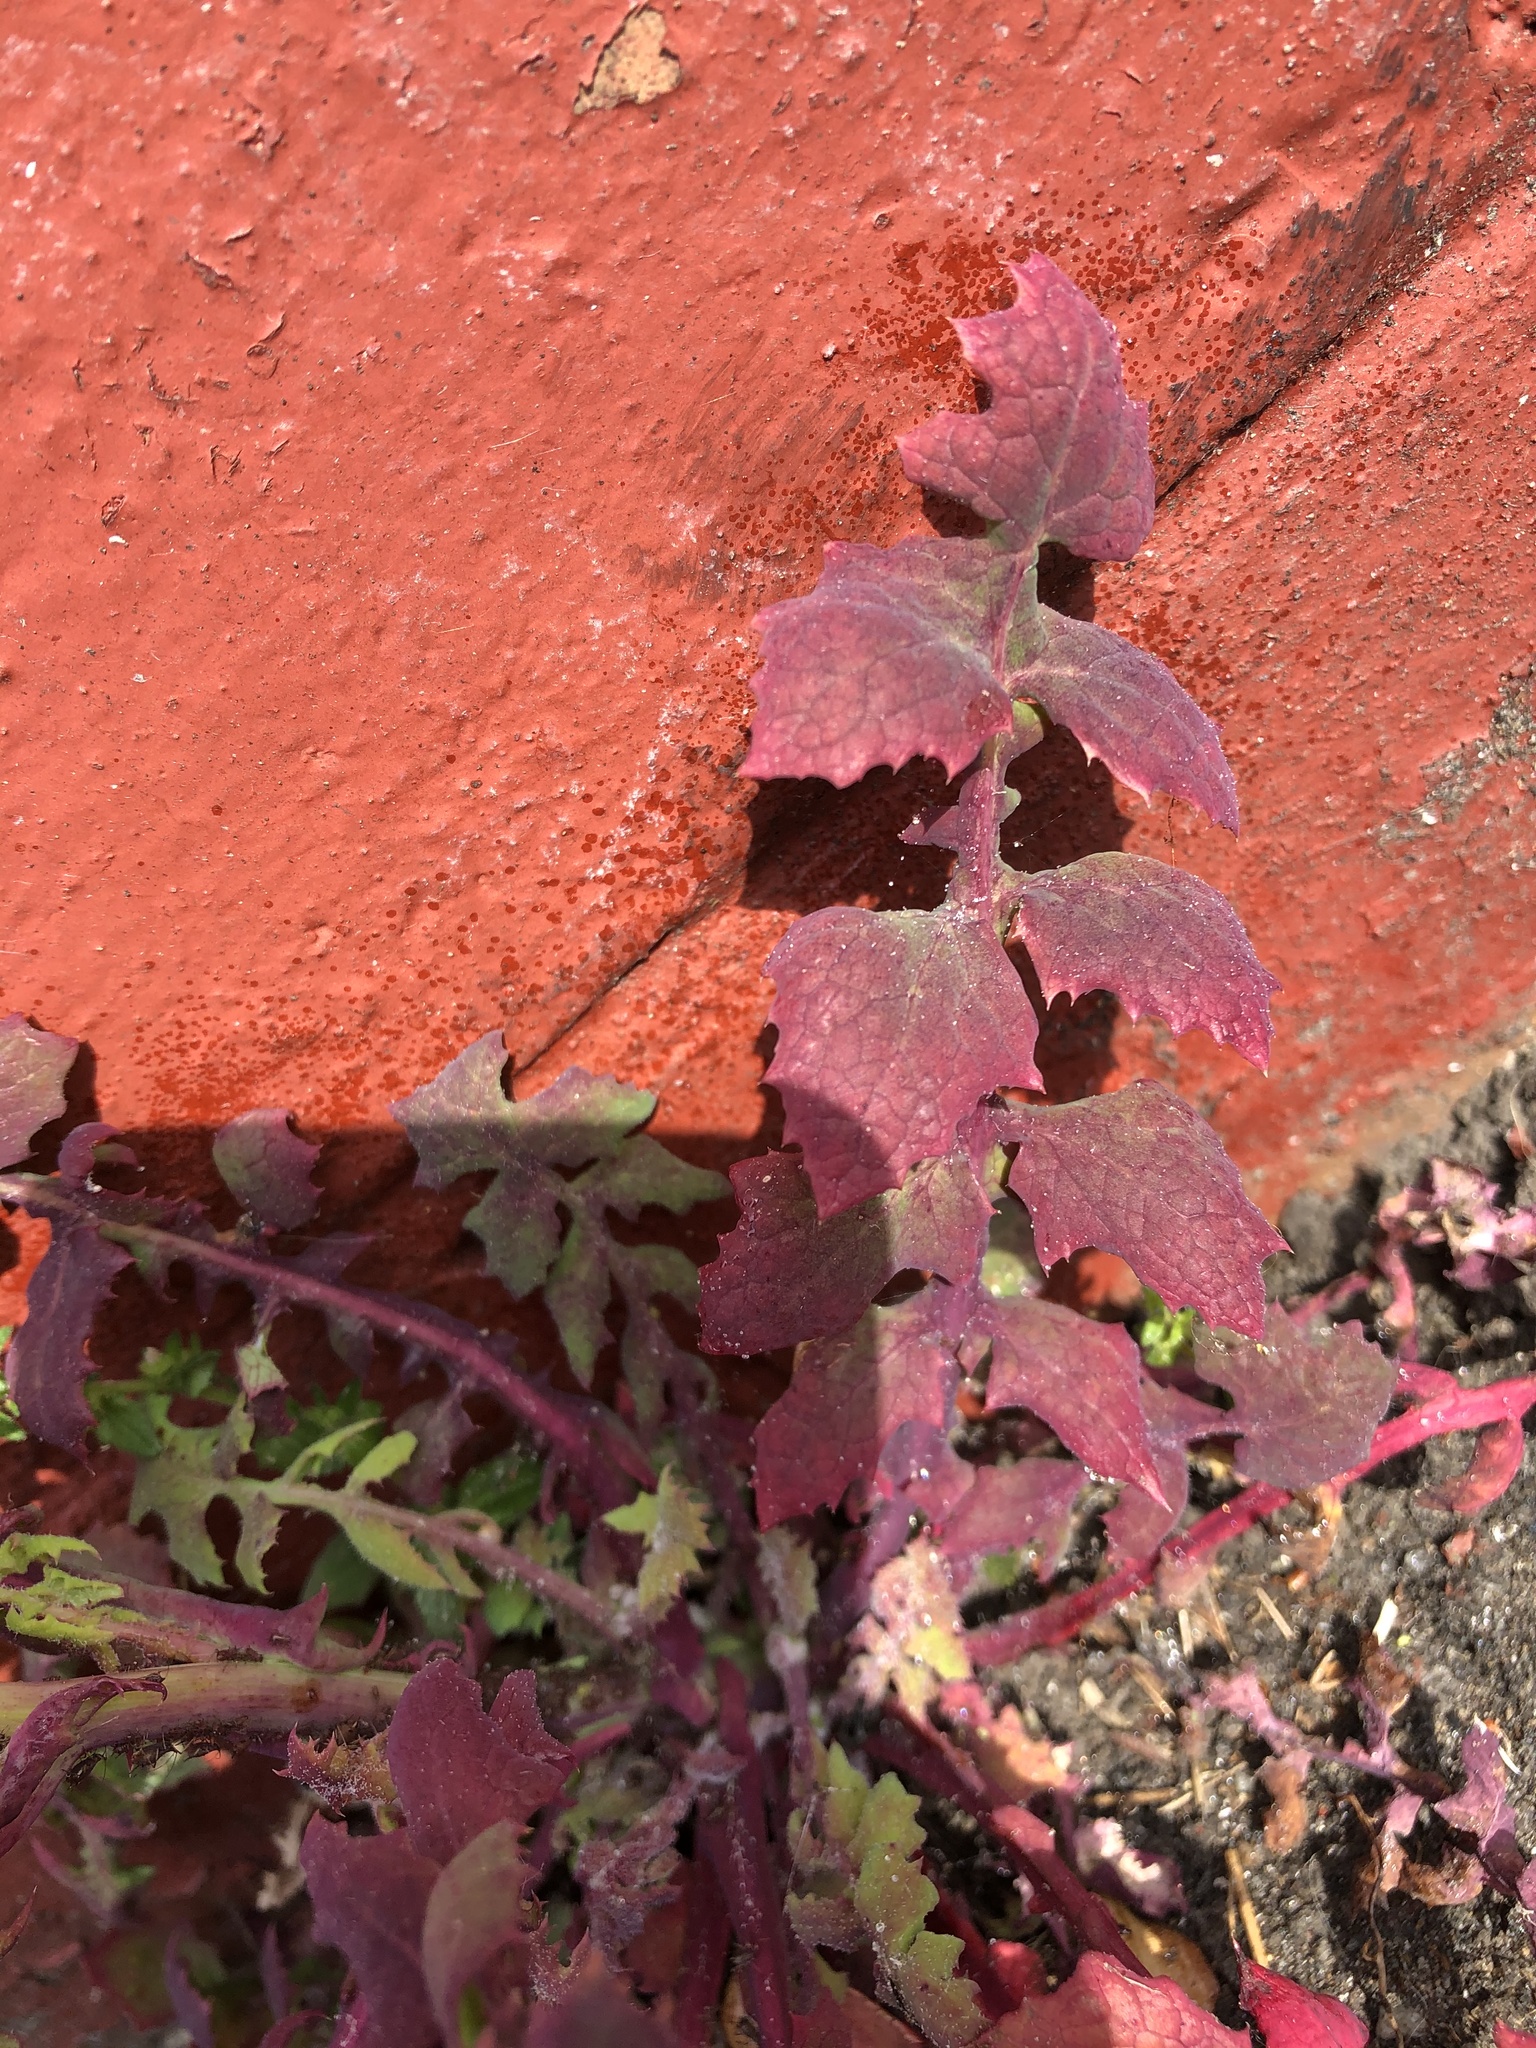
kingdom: Plantae
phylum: Tracheophyta
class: Magnoliopsida
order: Asterales
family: Asteraceae
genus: Sonchus
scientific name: Sonchus oleraceus
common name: Common sowthistle
